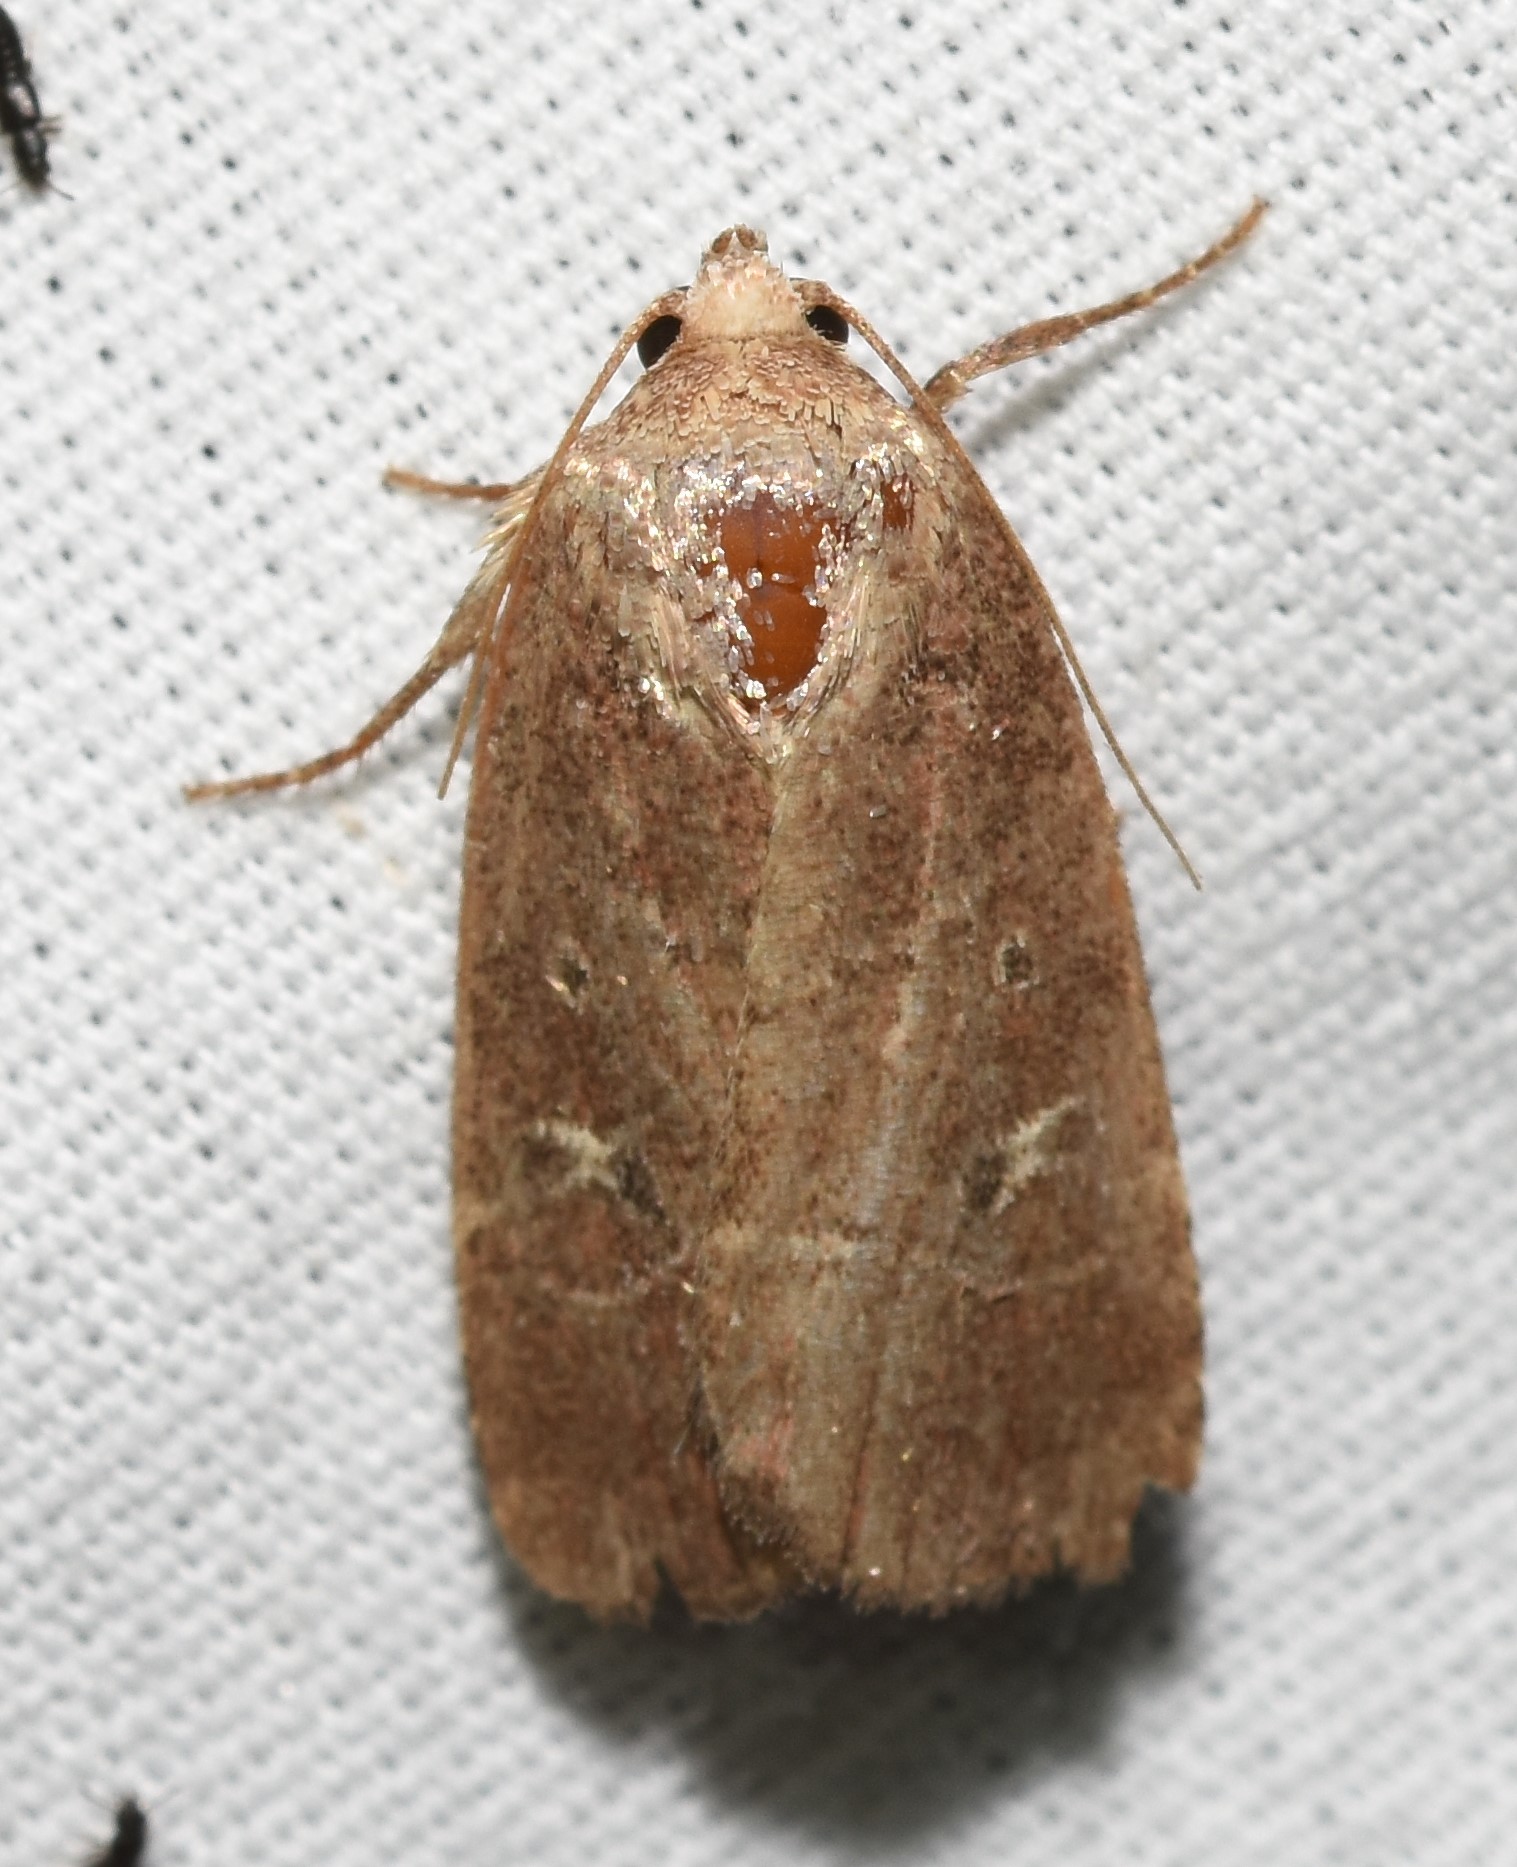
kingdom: Animalia
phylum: Arthropoda
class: Insecta
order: Lepidoptera
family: Noctuidae
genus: Elaphria
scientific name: Elaphria grata
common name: Grateful midget moth
